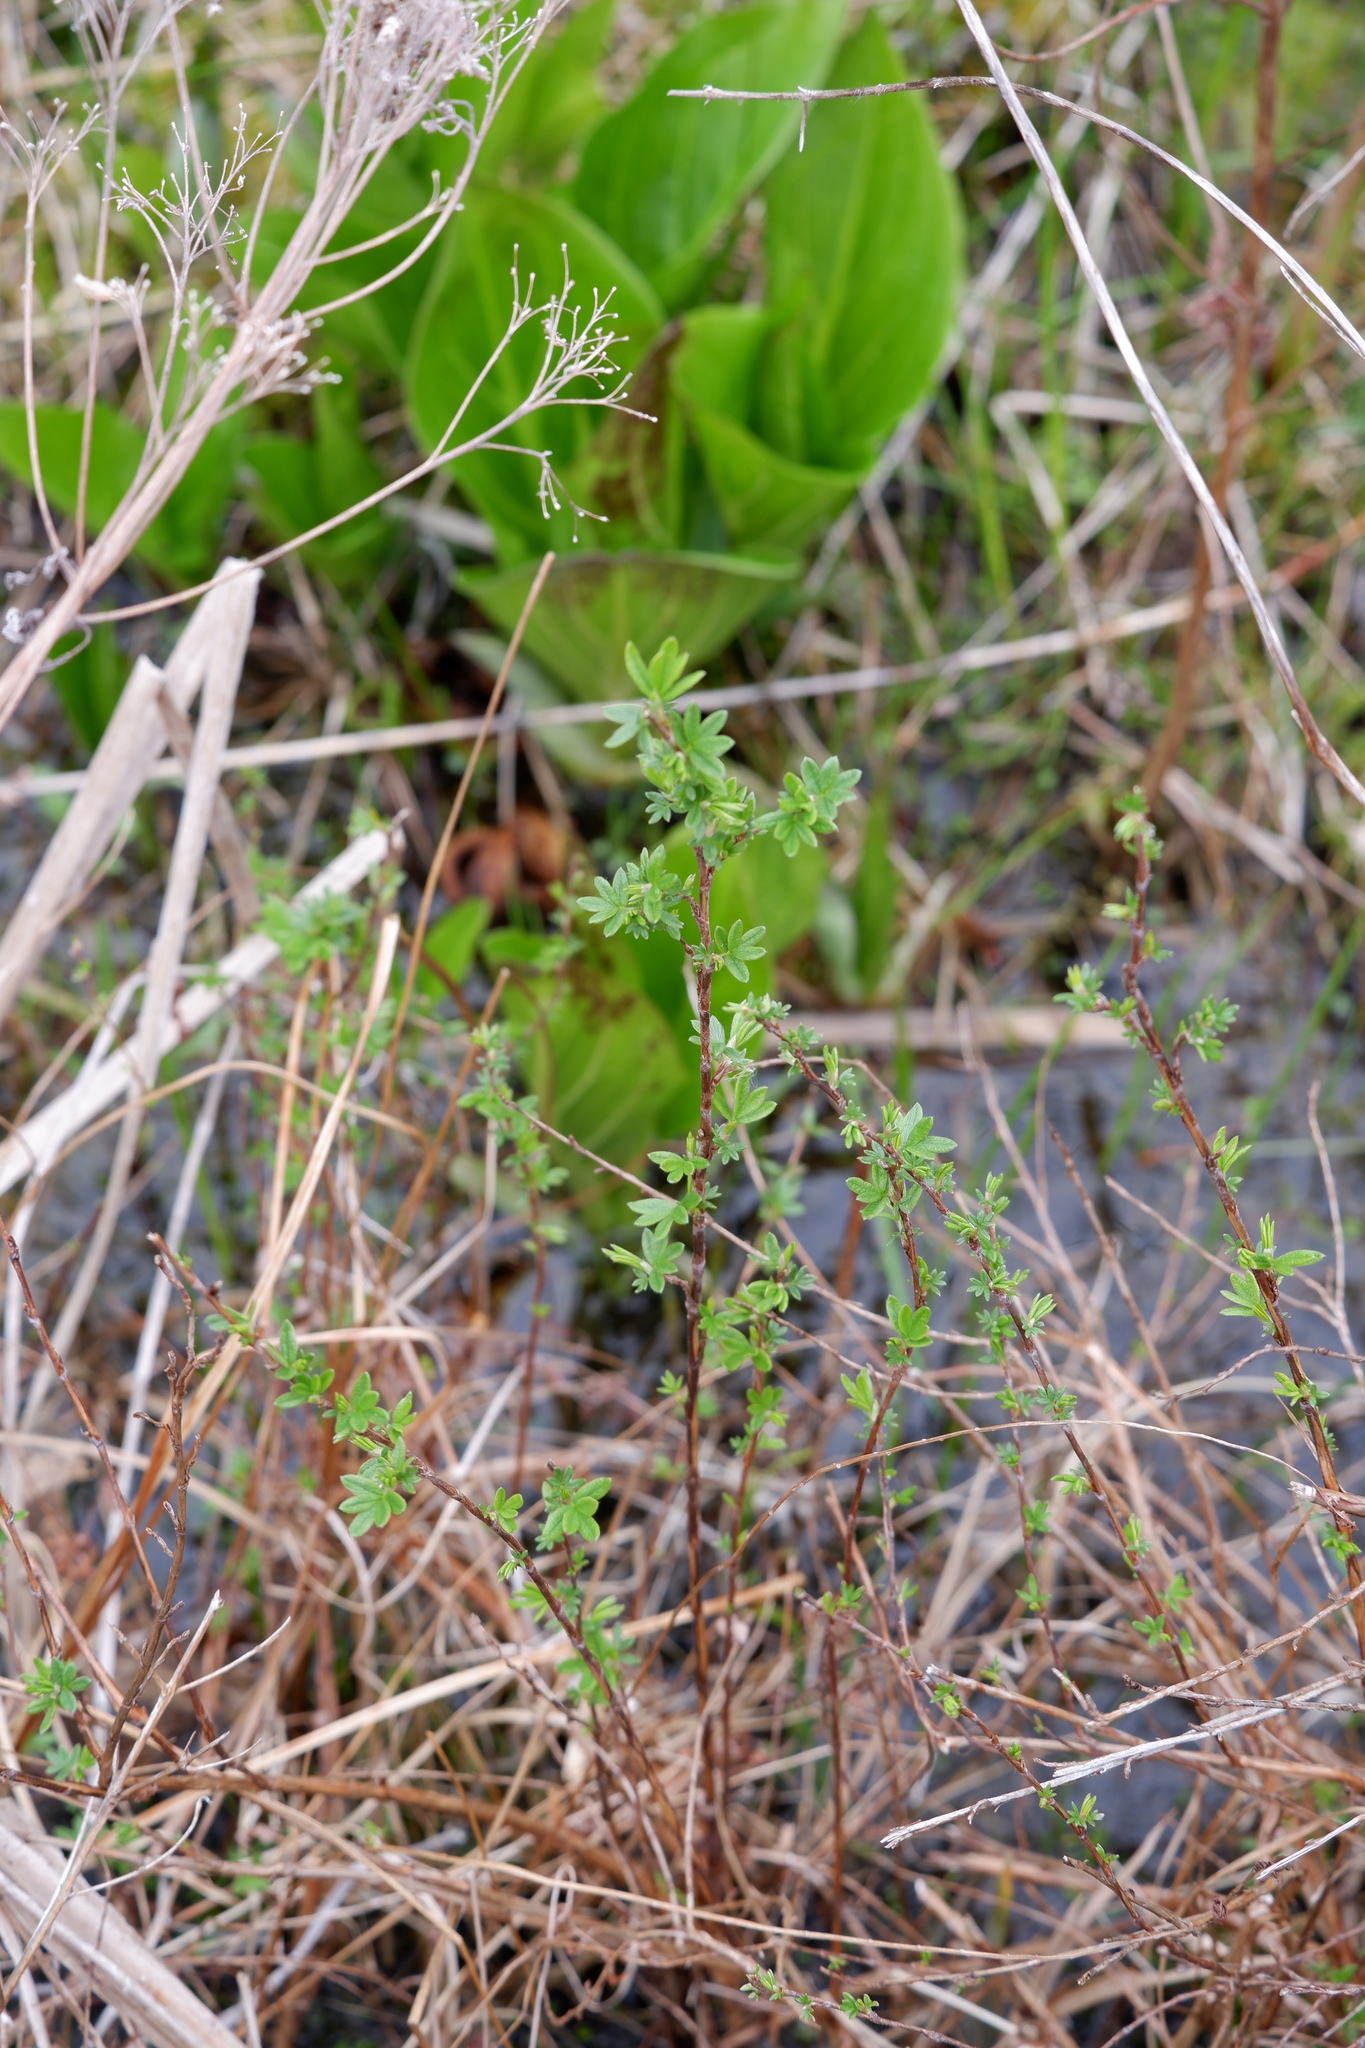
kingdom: Plantae
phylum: Tracheophyta
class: Magnoliopsida
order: Rosales
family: Rosaceae
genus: Dasiphora
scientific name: Dasiphora fruticosa
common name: Shrubby cinquefoil
